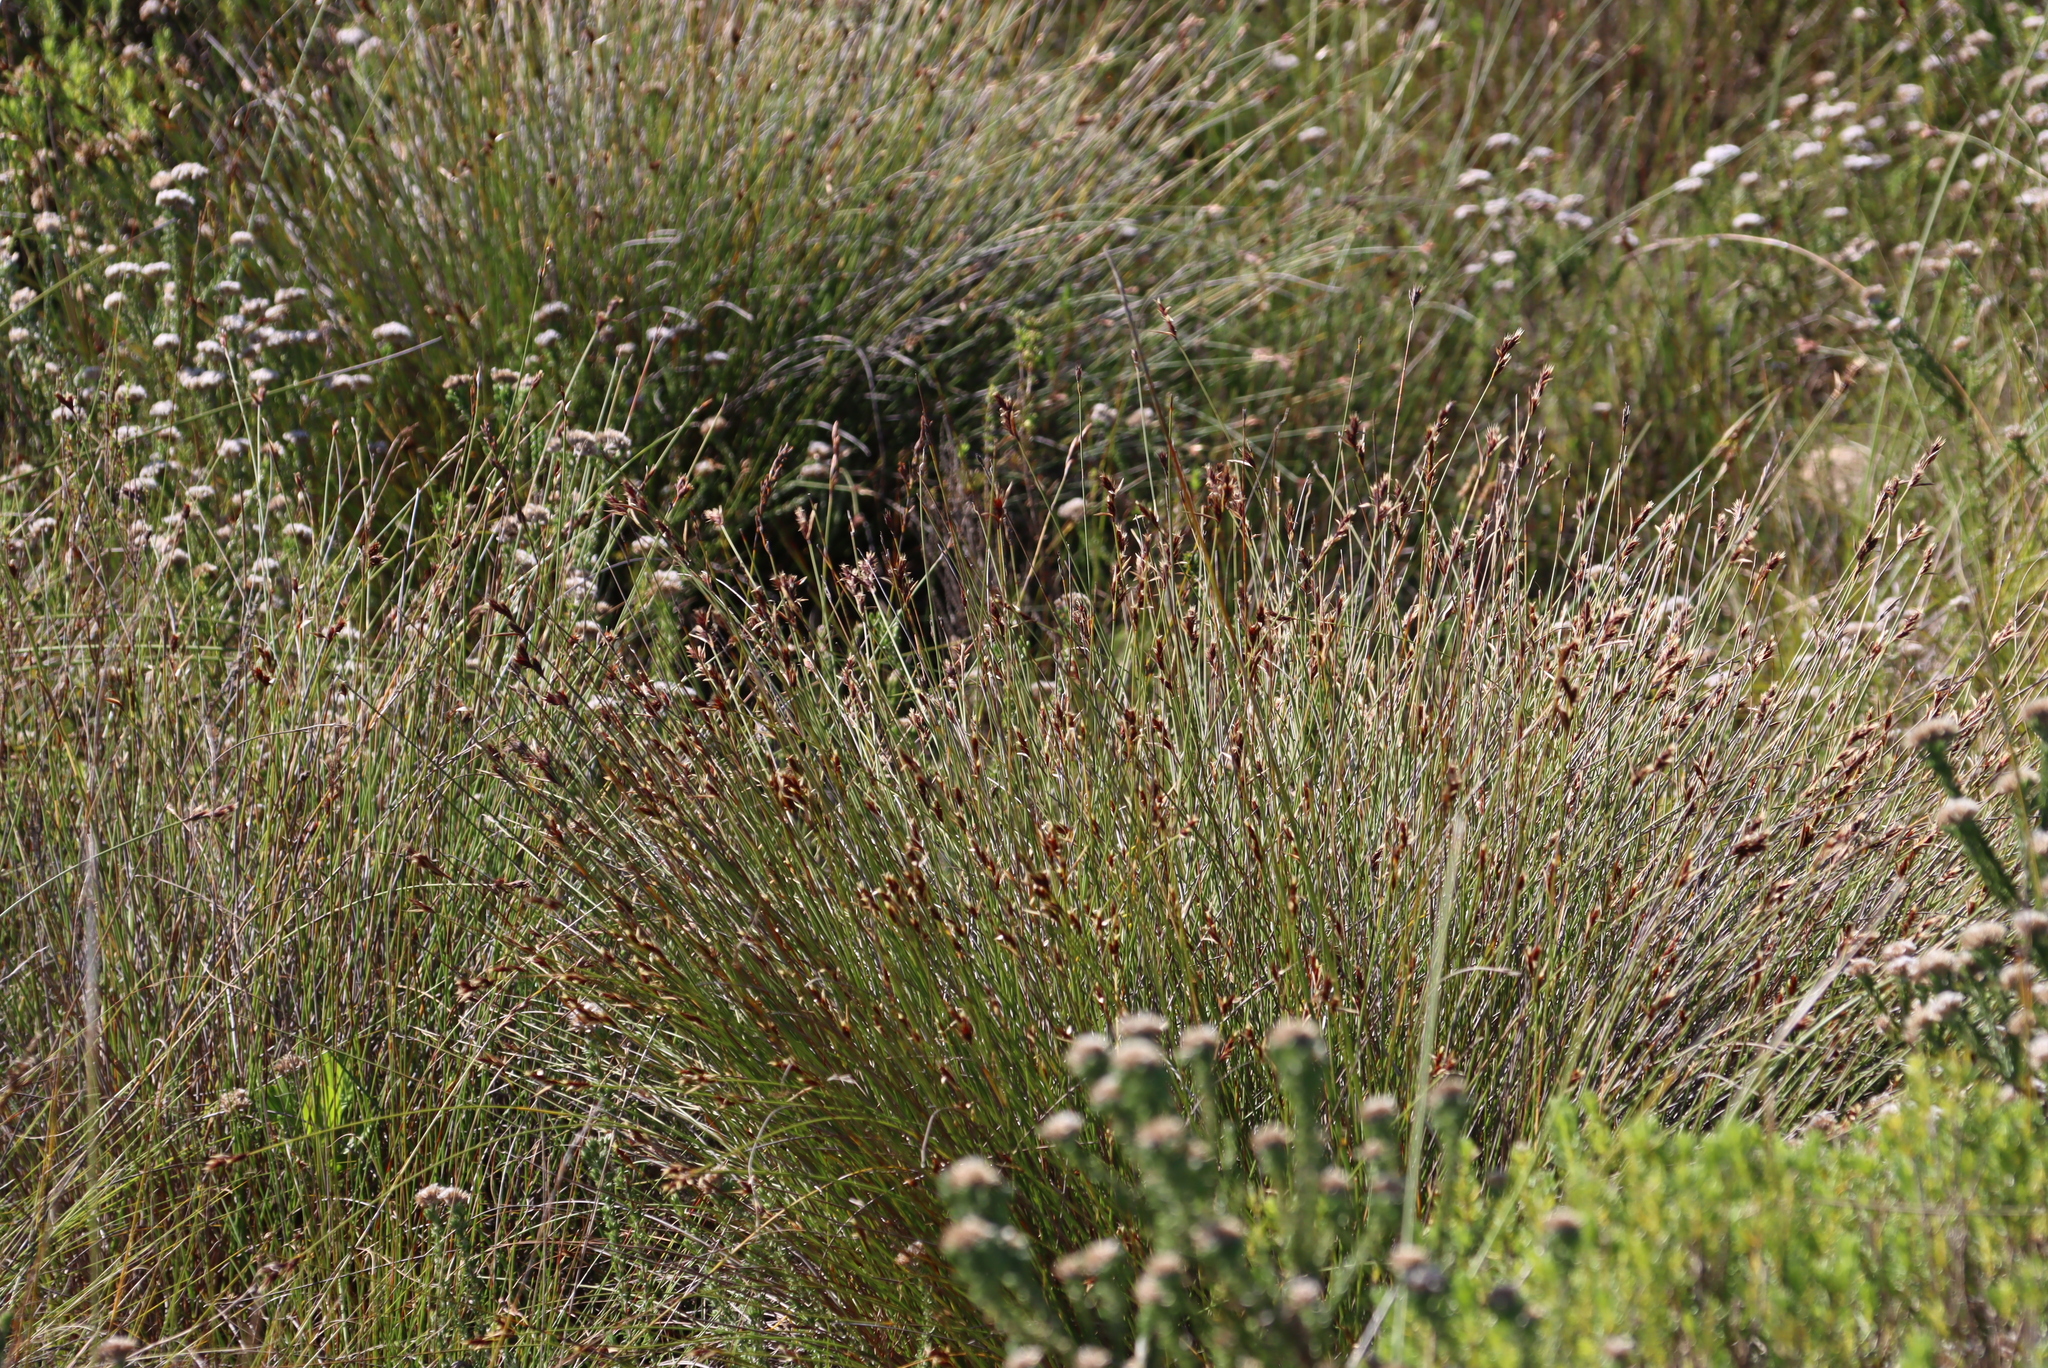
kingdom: Plantae
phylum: Tracheophyta
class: Liliopsida
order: Poales
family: Restionaceae
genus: Hypodiscus
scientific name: Hypodiscus aristatus
